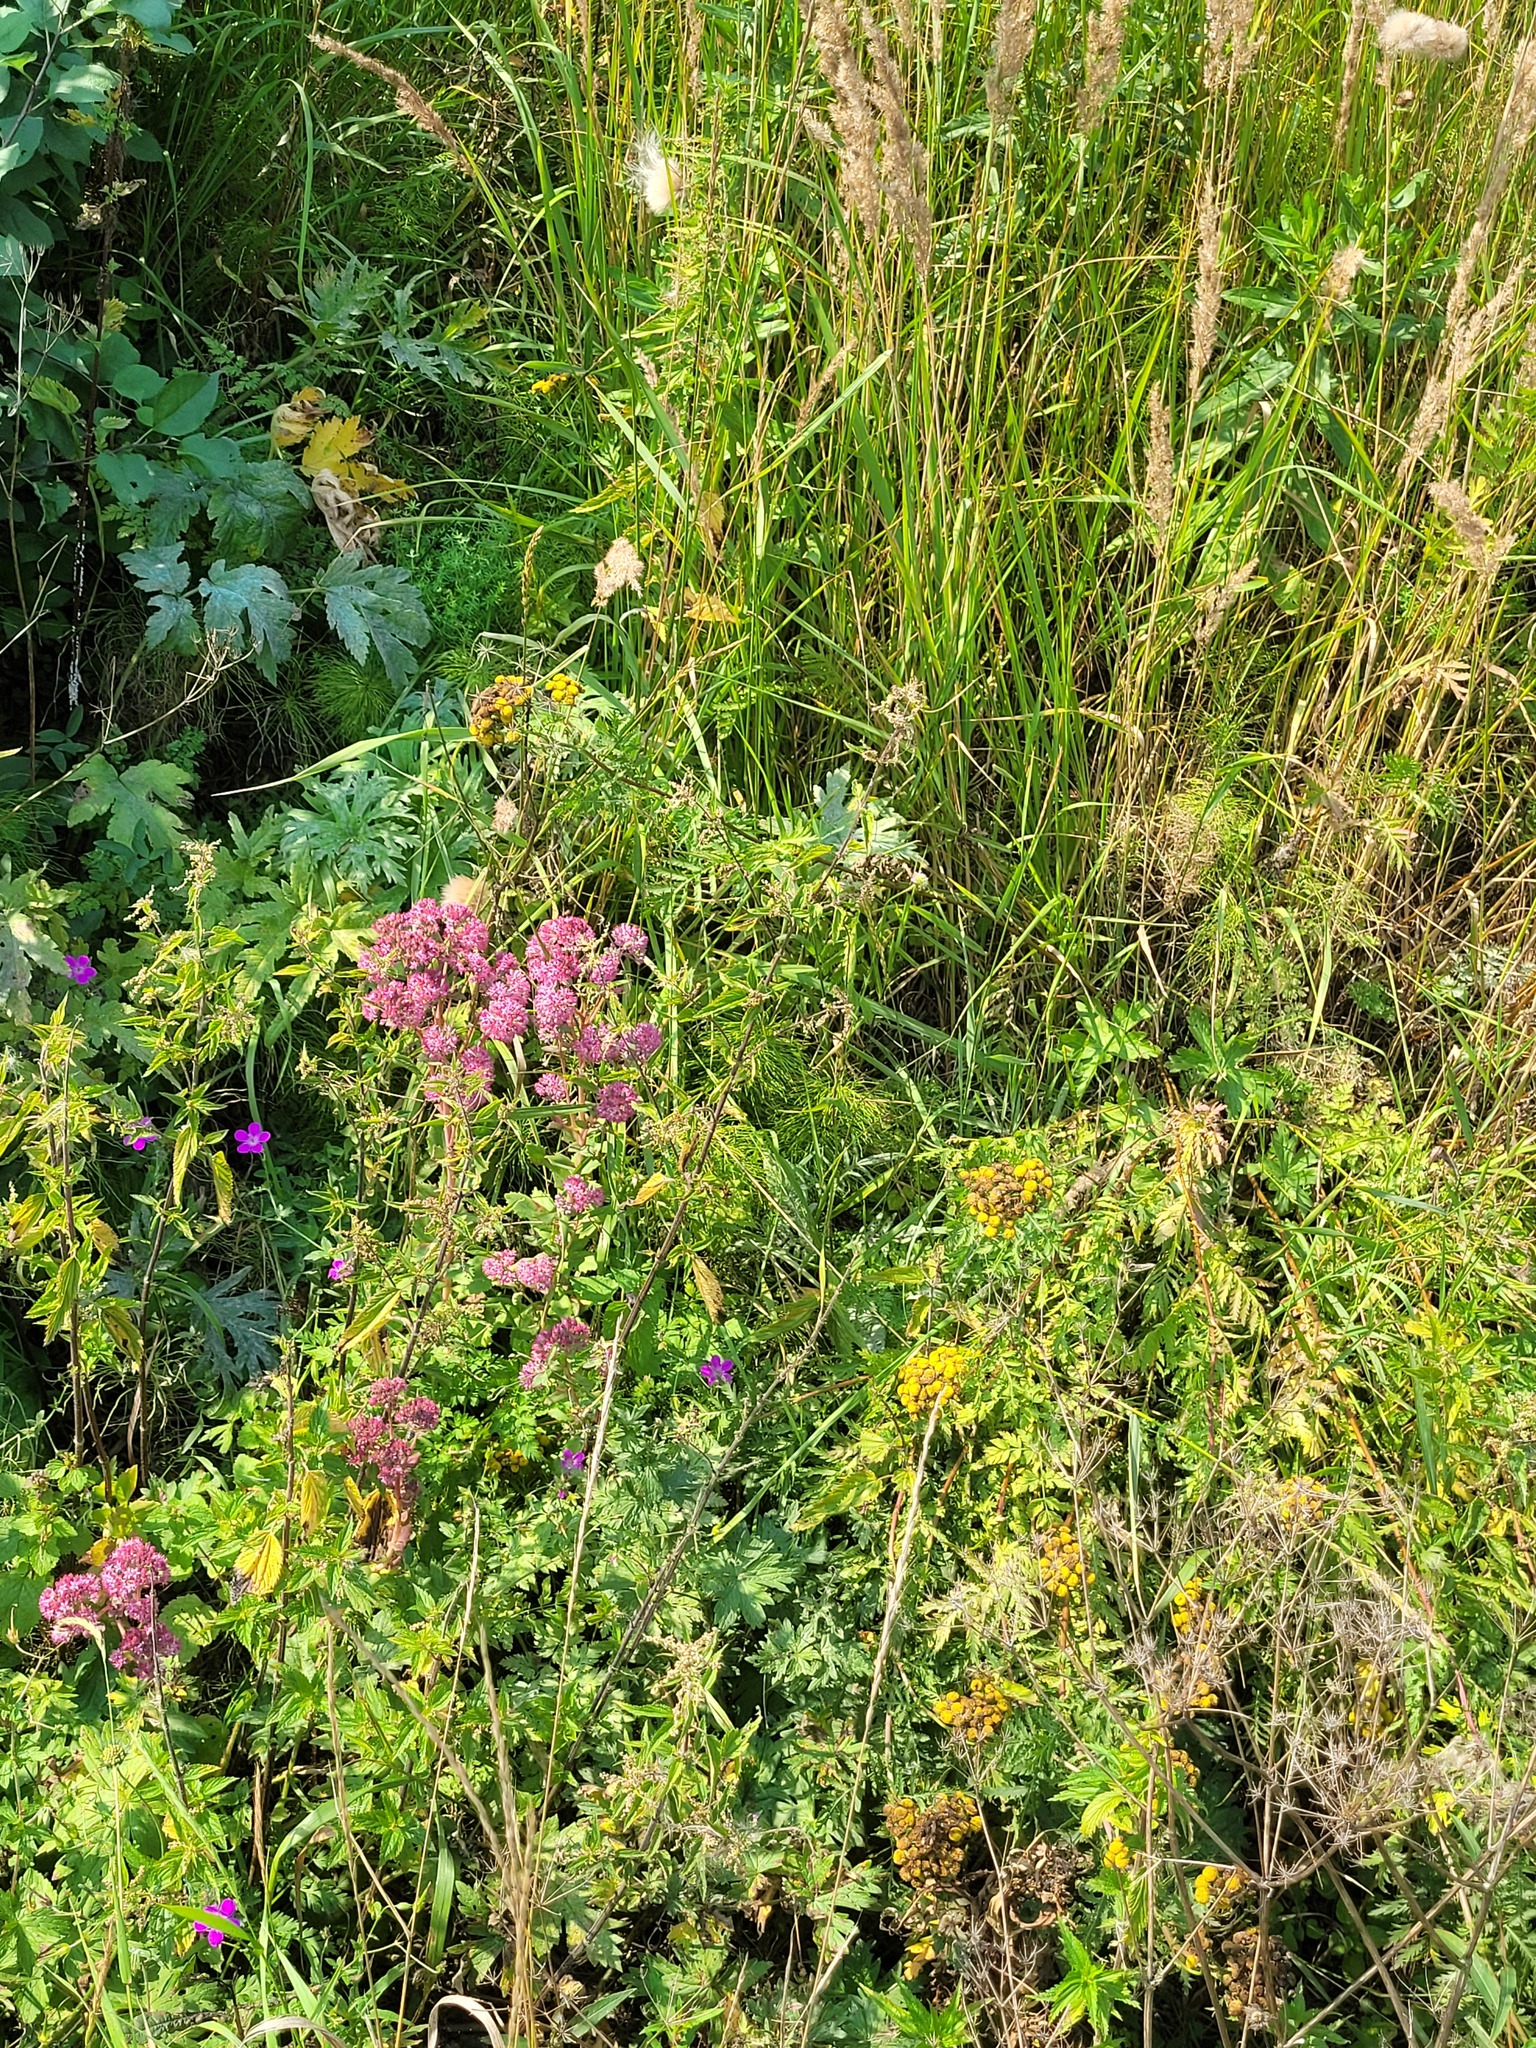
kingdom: Plantae
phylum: Tracheophyta
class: Magnoliopsida
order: Saxifragales
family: Crassulaceae
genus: Hylotelephium
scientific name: Hylotelephium telephium
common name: Live-forever
